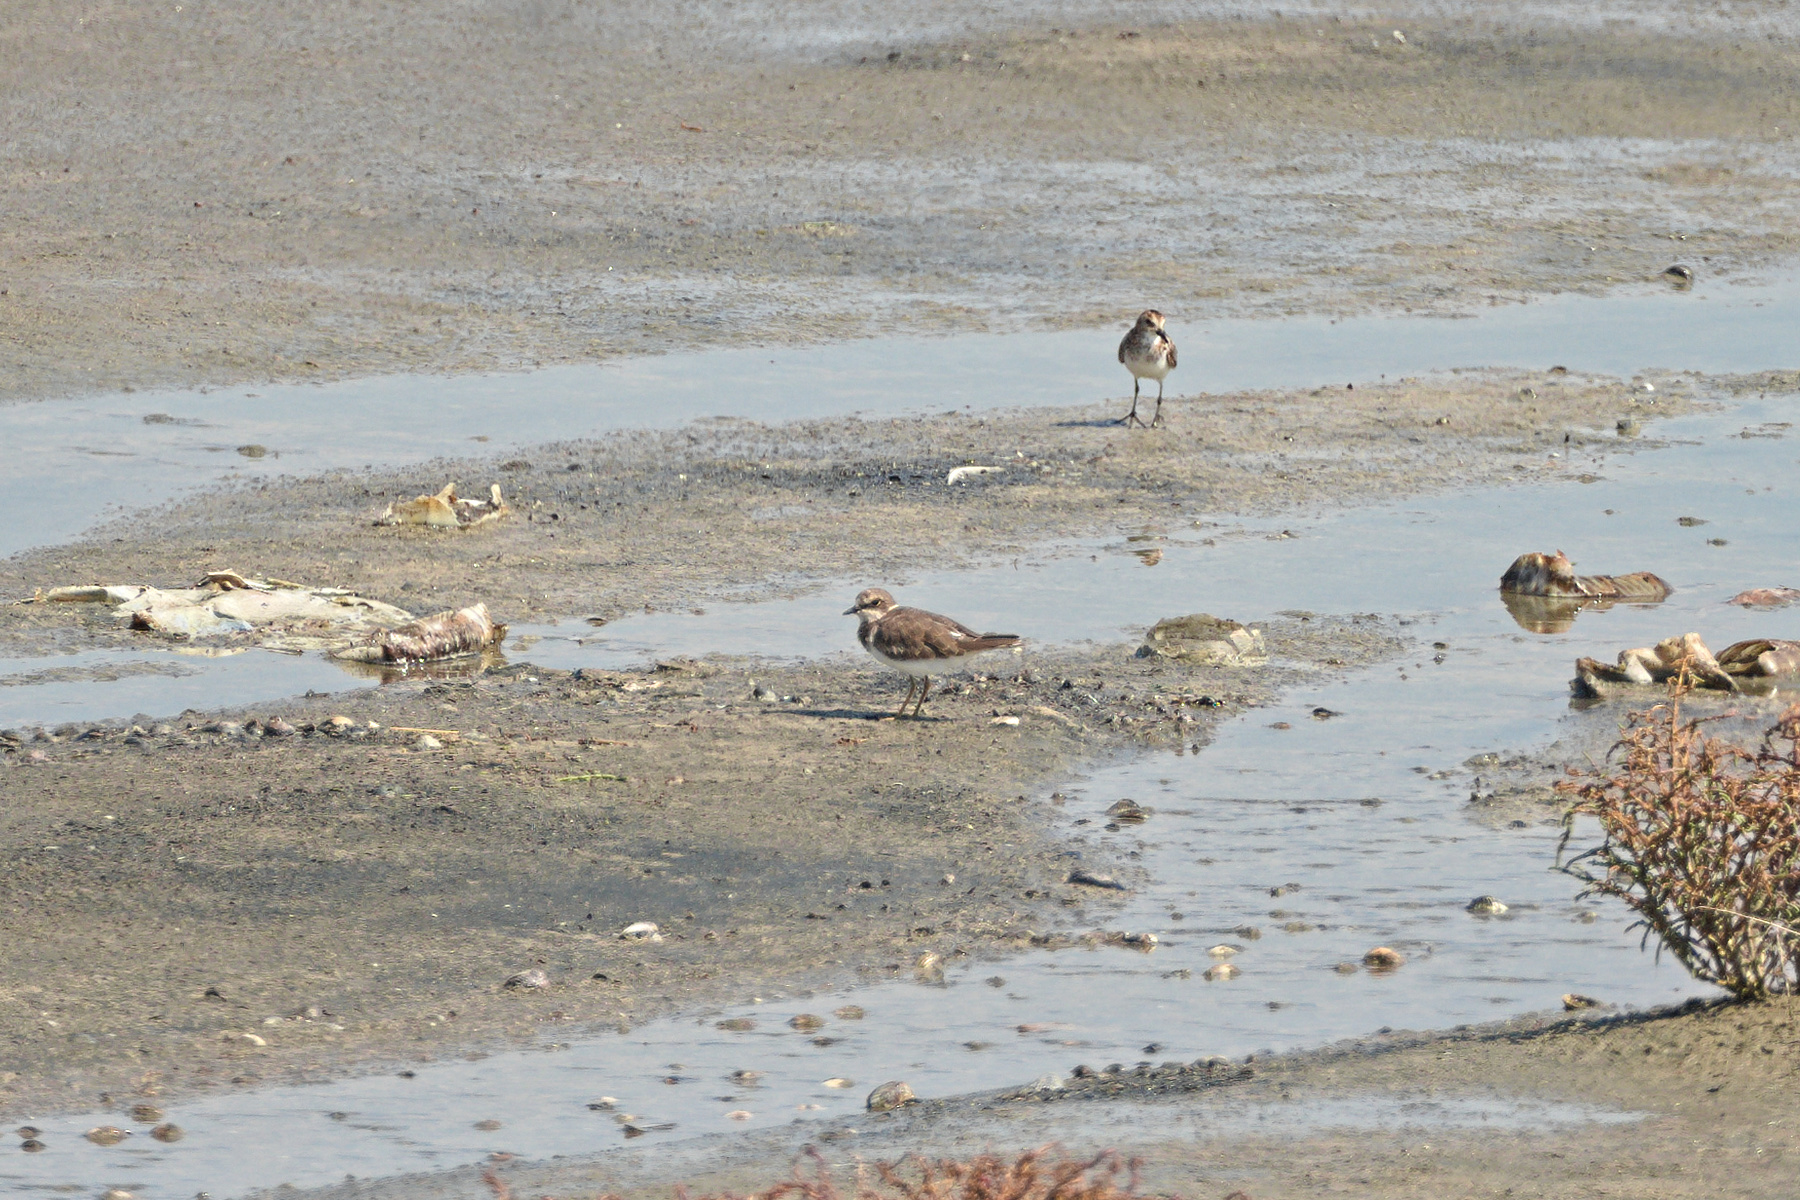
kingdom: Animalia
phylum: Chordata
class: Aves
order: Charadriiformes
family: Charadriidae
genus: Charadrius
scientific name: Charadrius dubius
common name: Little ringed plover
